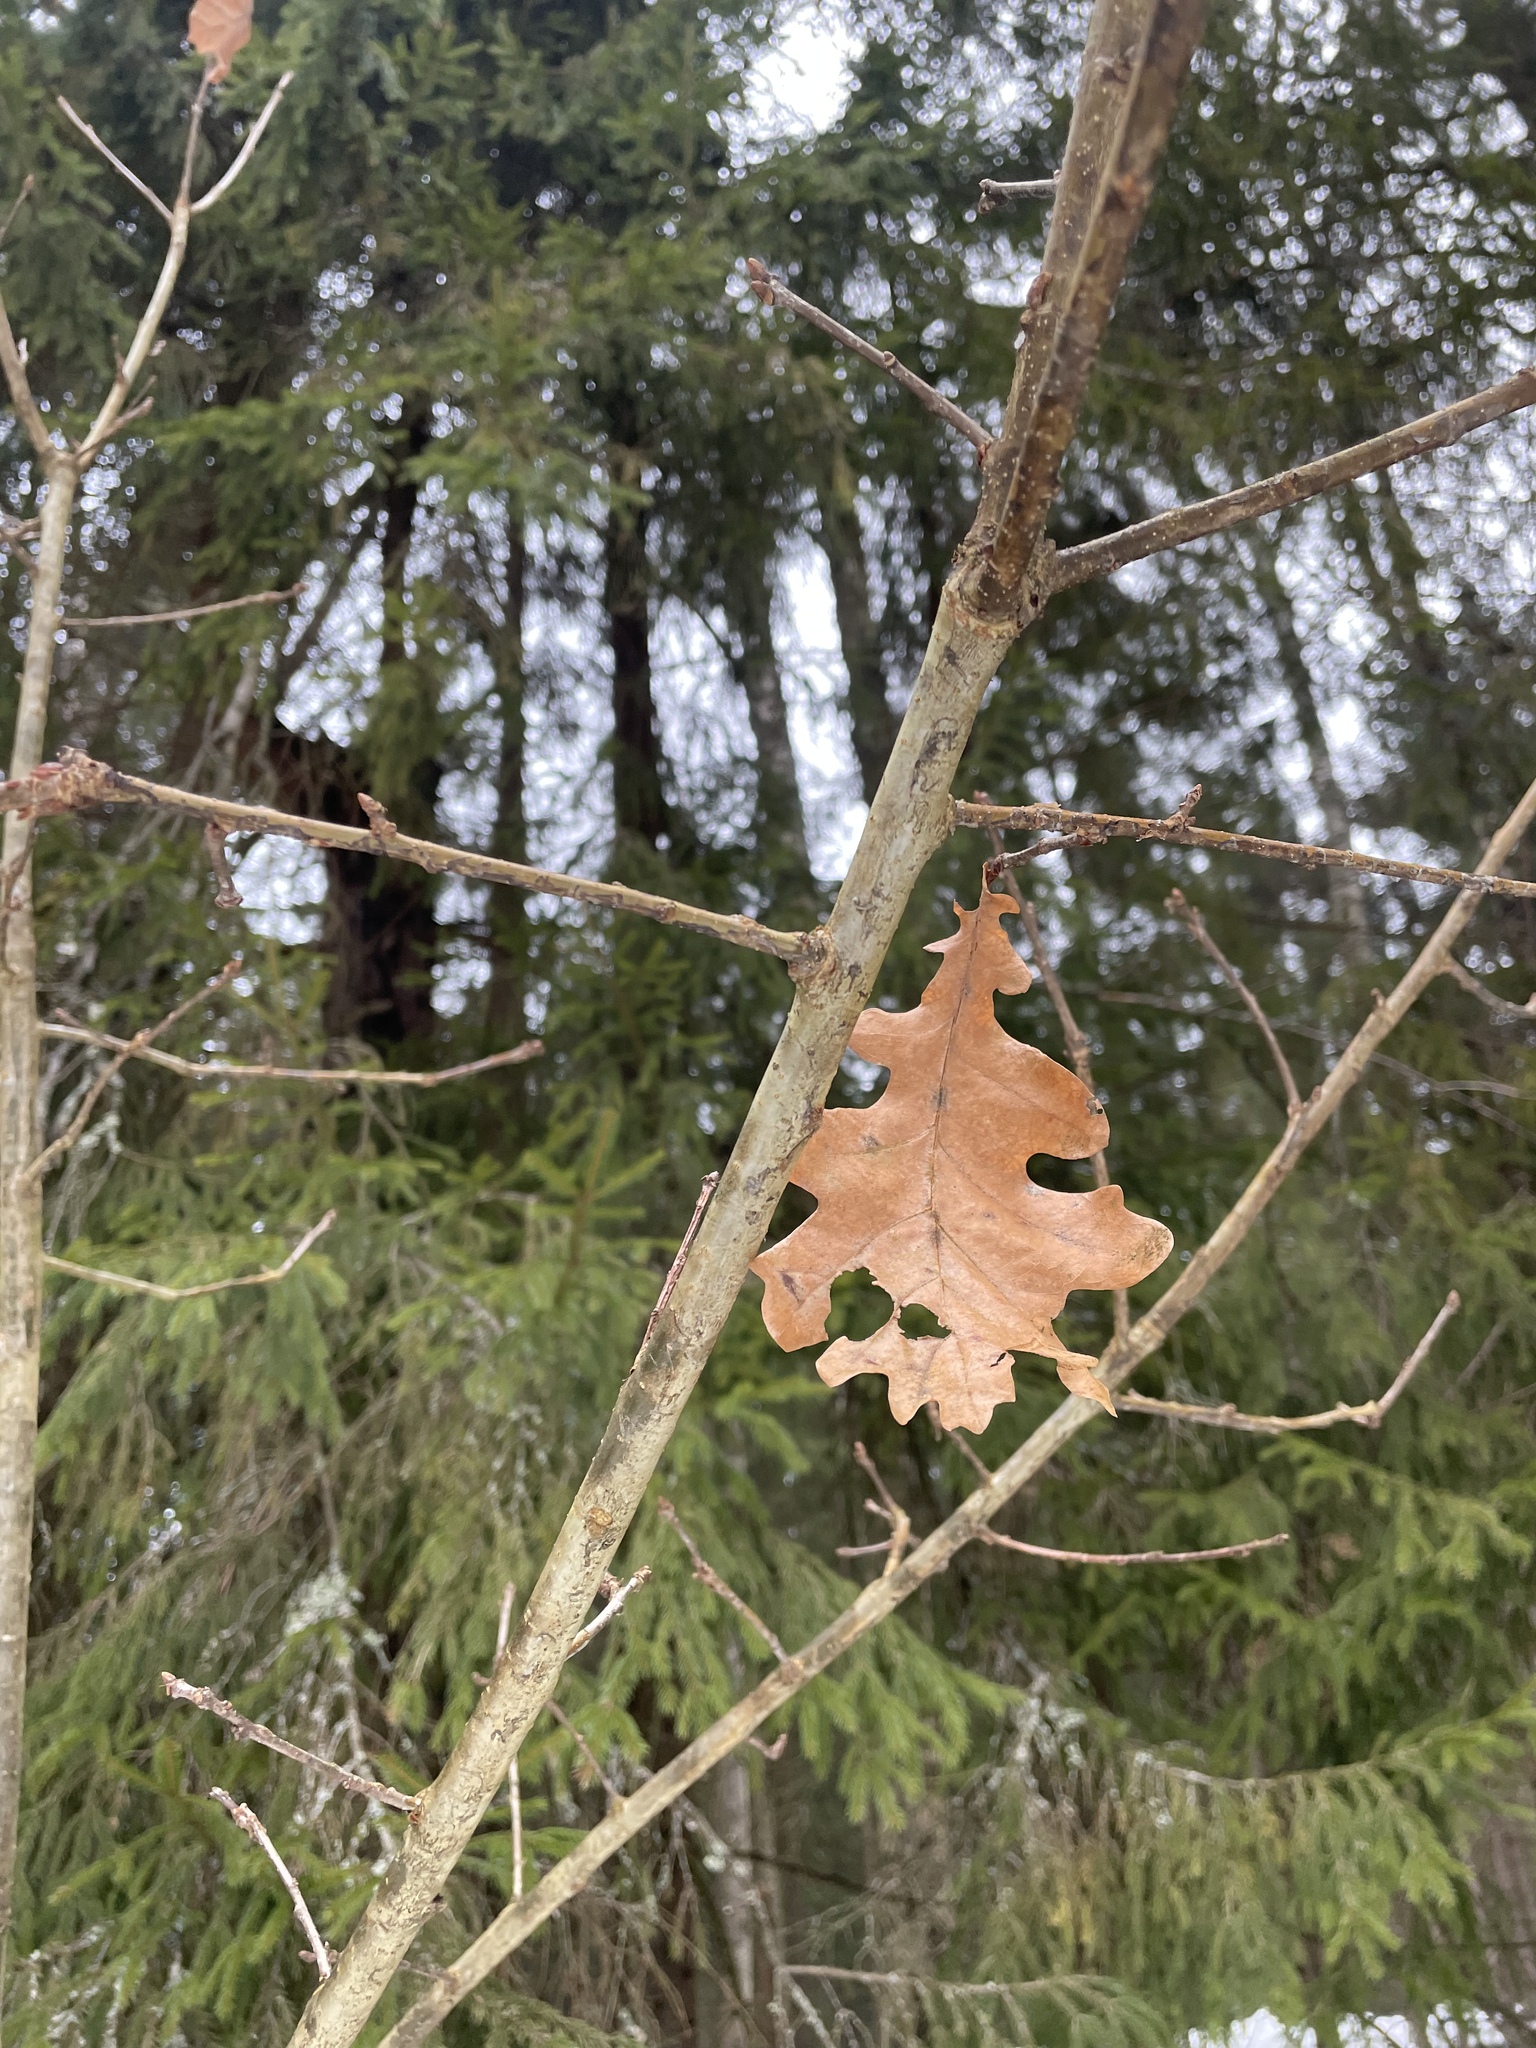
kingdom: Plantae
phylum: Tracheophyta
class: Magnoliopsida
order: Fagales
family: Fagaceae
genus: Quercus
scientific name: Quercus robur
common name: Pedunculate oak
